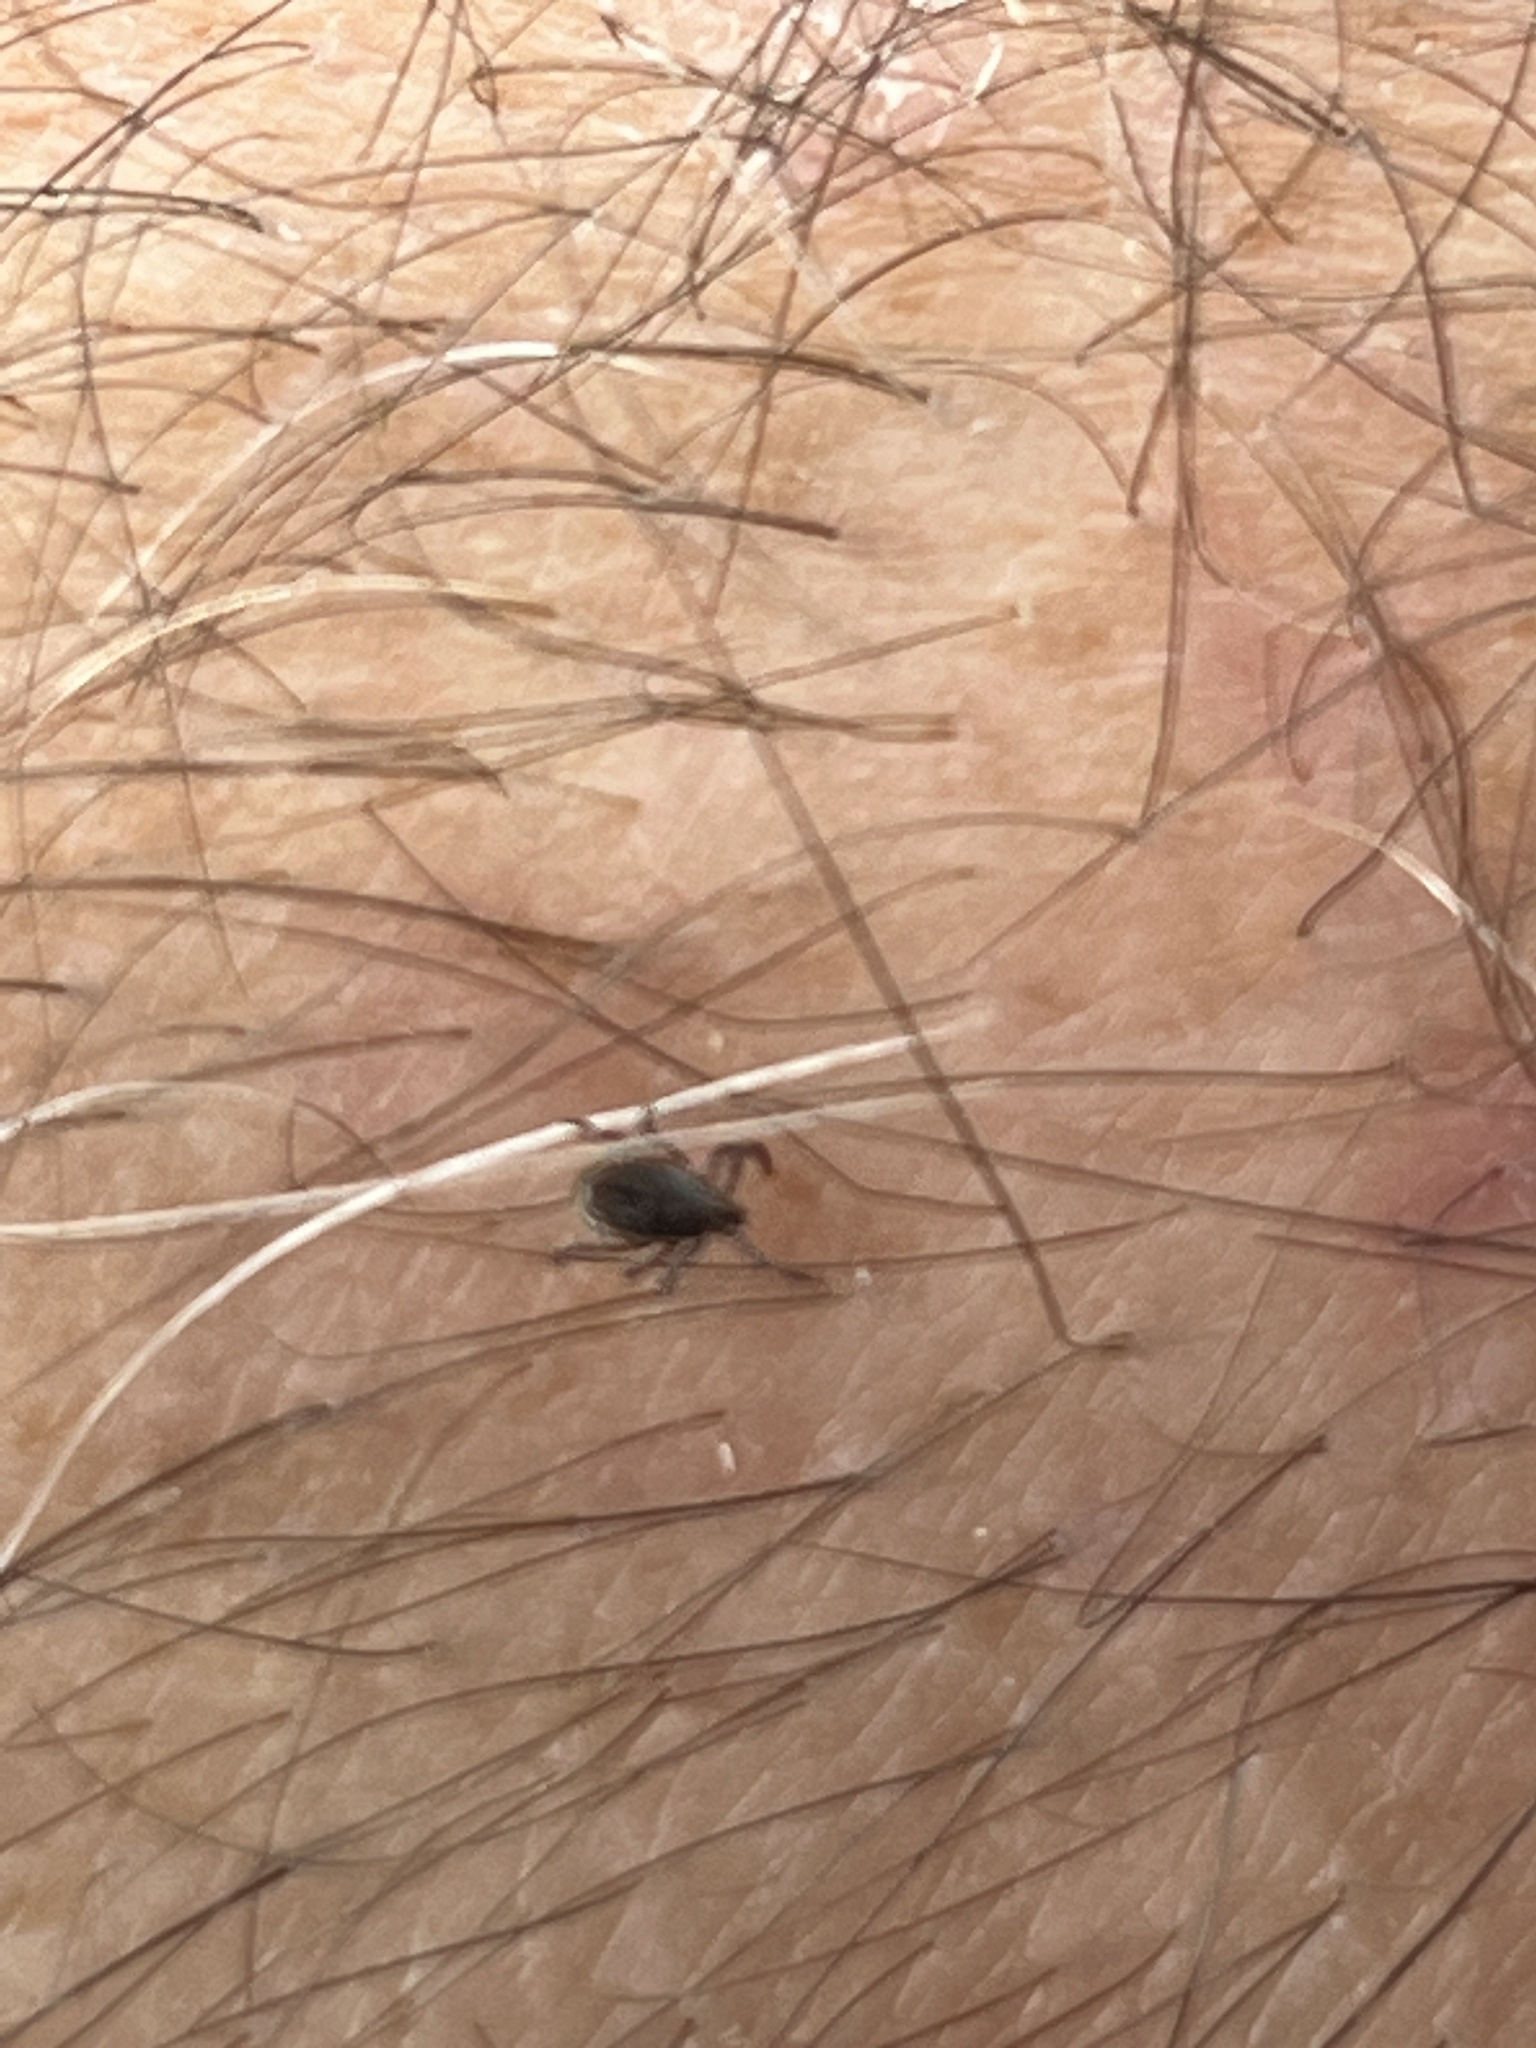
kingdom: Animalia
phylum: Arthropoda
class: Arachnida
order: Ixodida
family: Ixodidae
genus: Ixodes
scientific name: Ixodes scapularis
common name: Black legged tick
